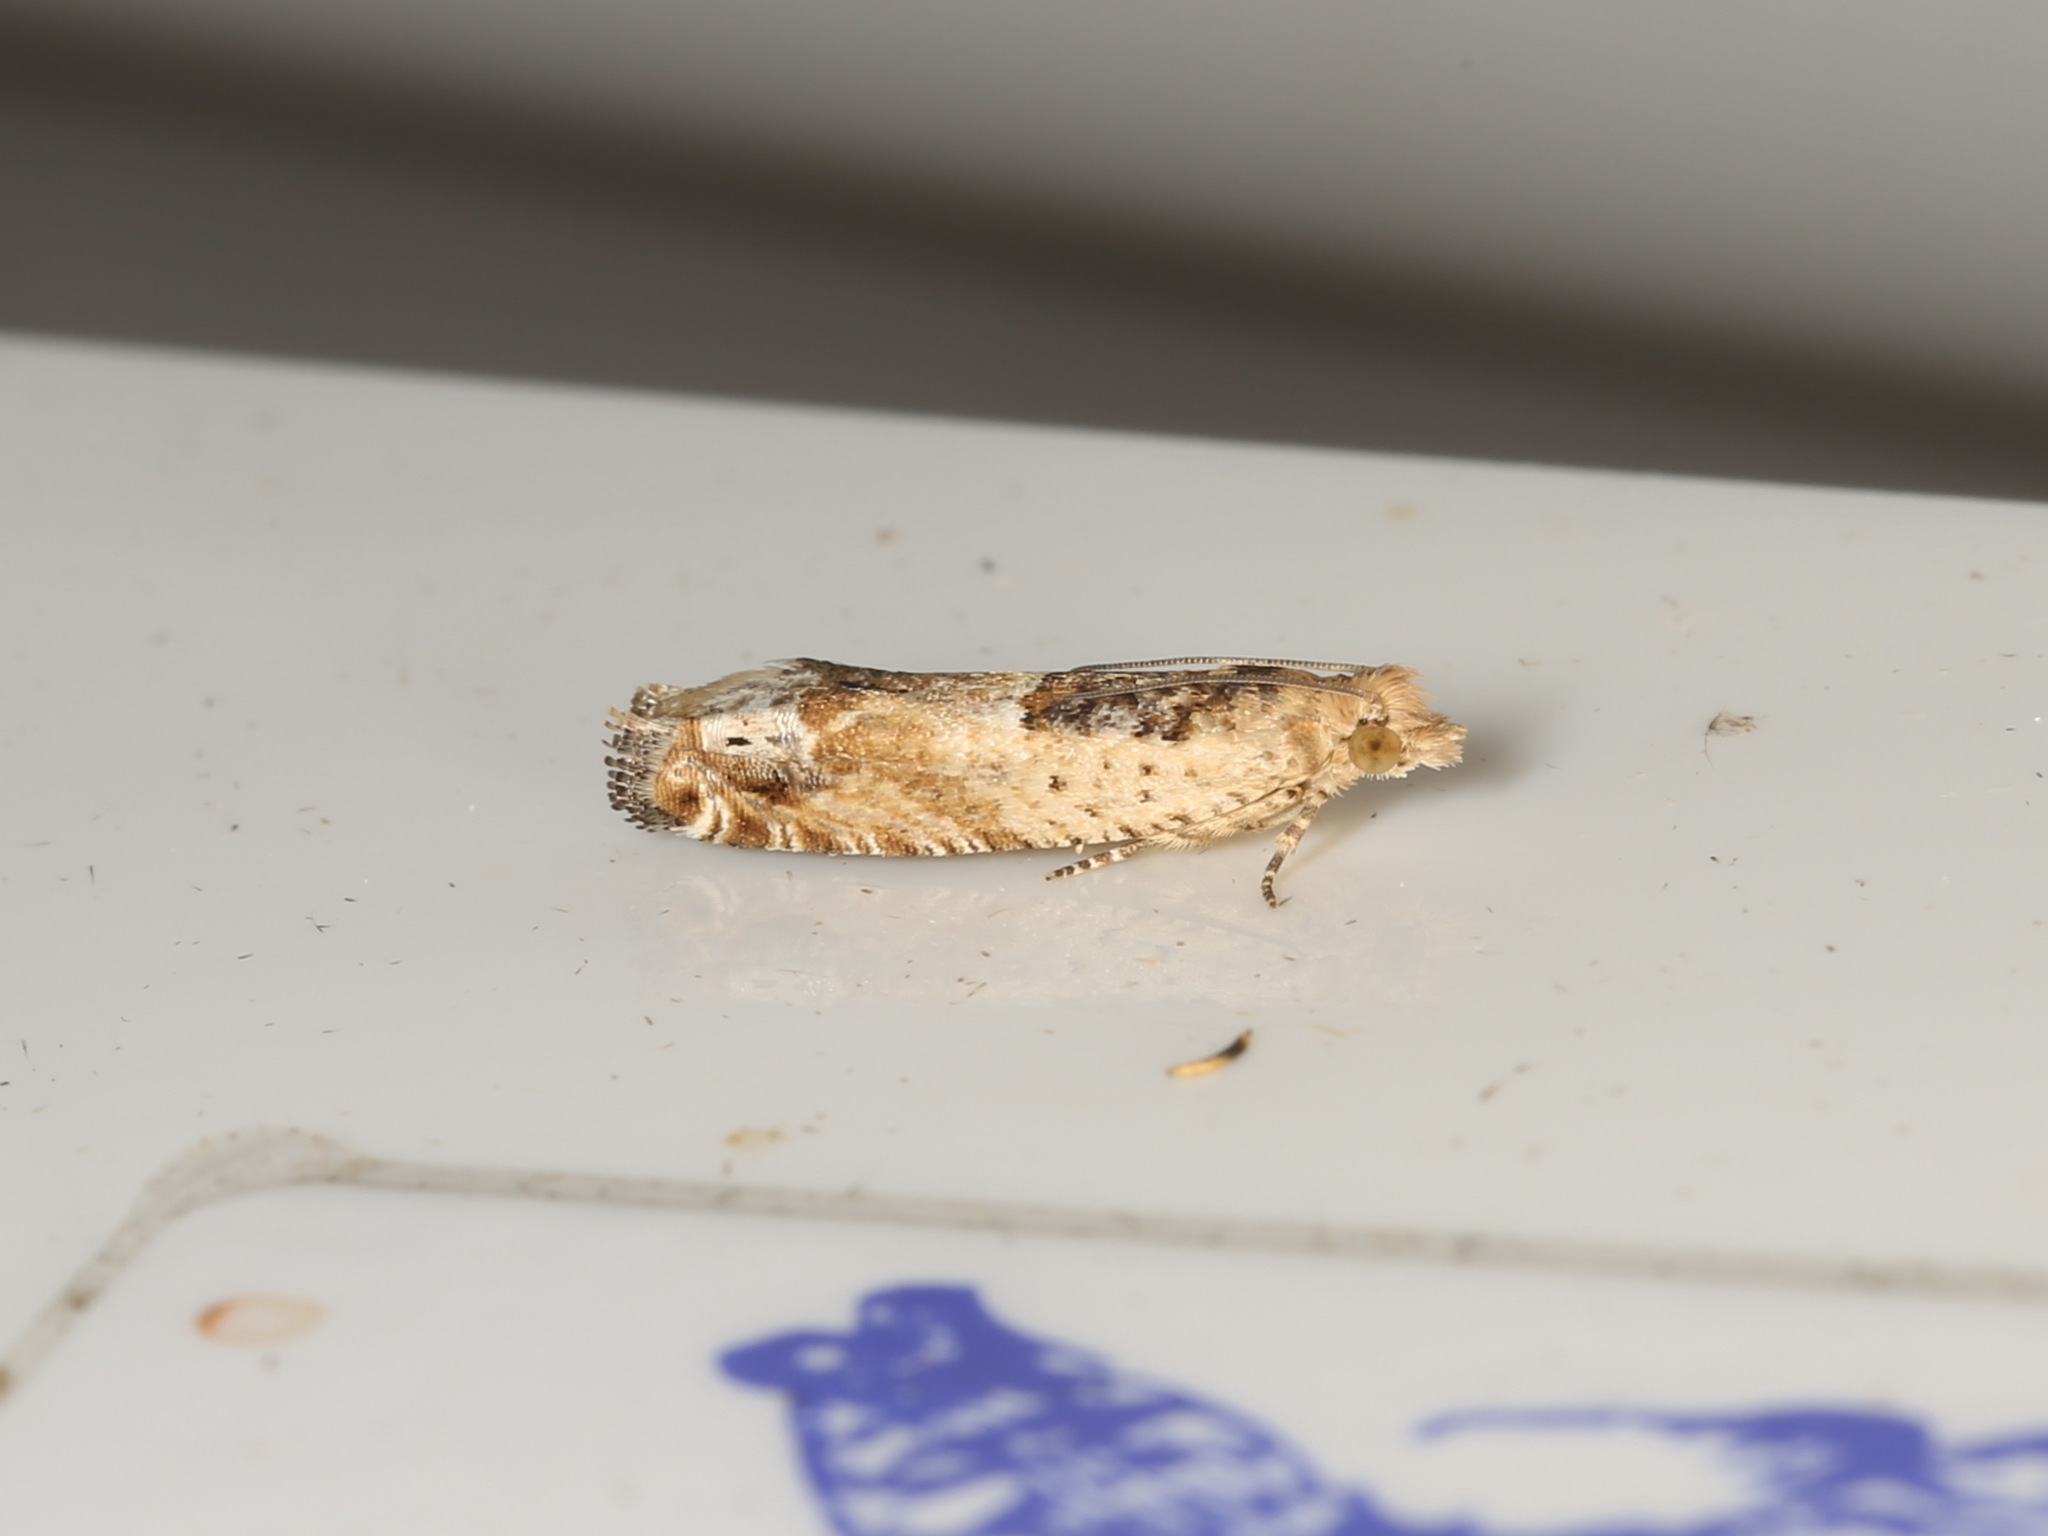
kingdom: Animalia
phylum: Arthropoda
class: Insecta
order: Lepidoptera
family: Tortricidae
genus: Crocidosema
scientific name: Crocidosema plebejana
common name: Southern bell
